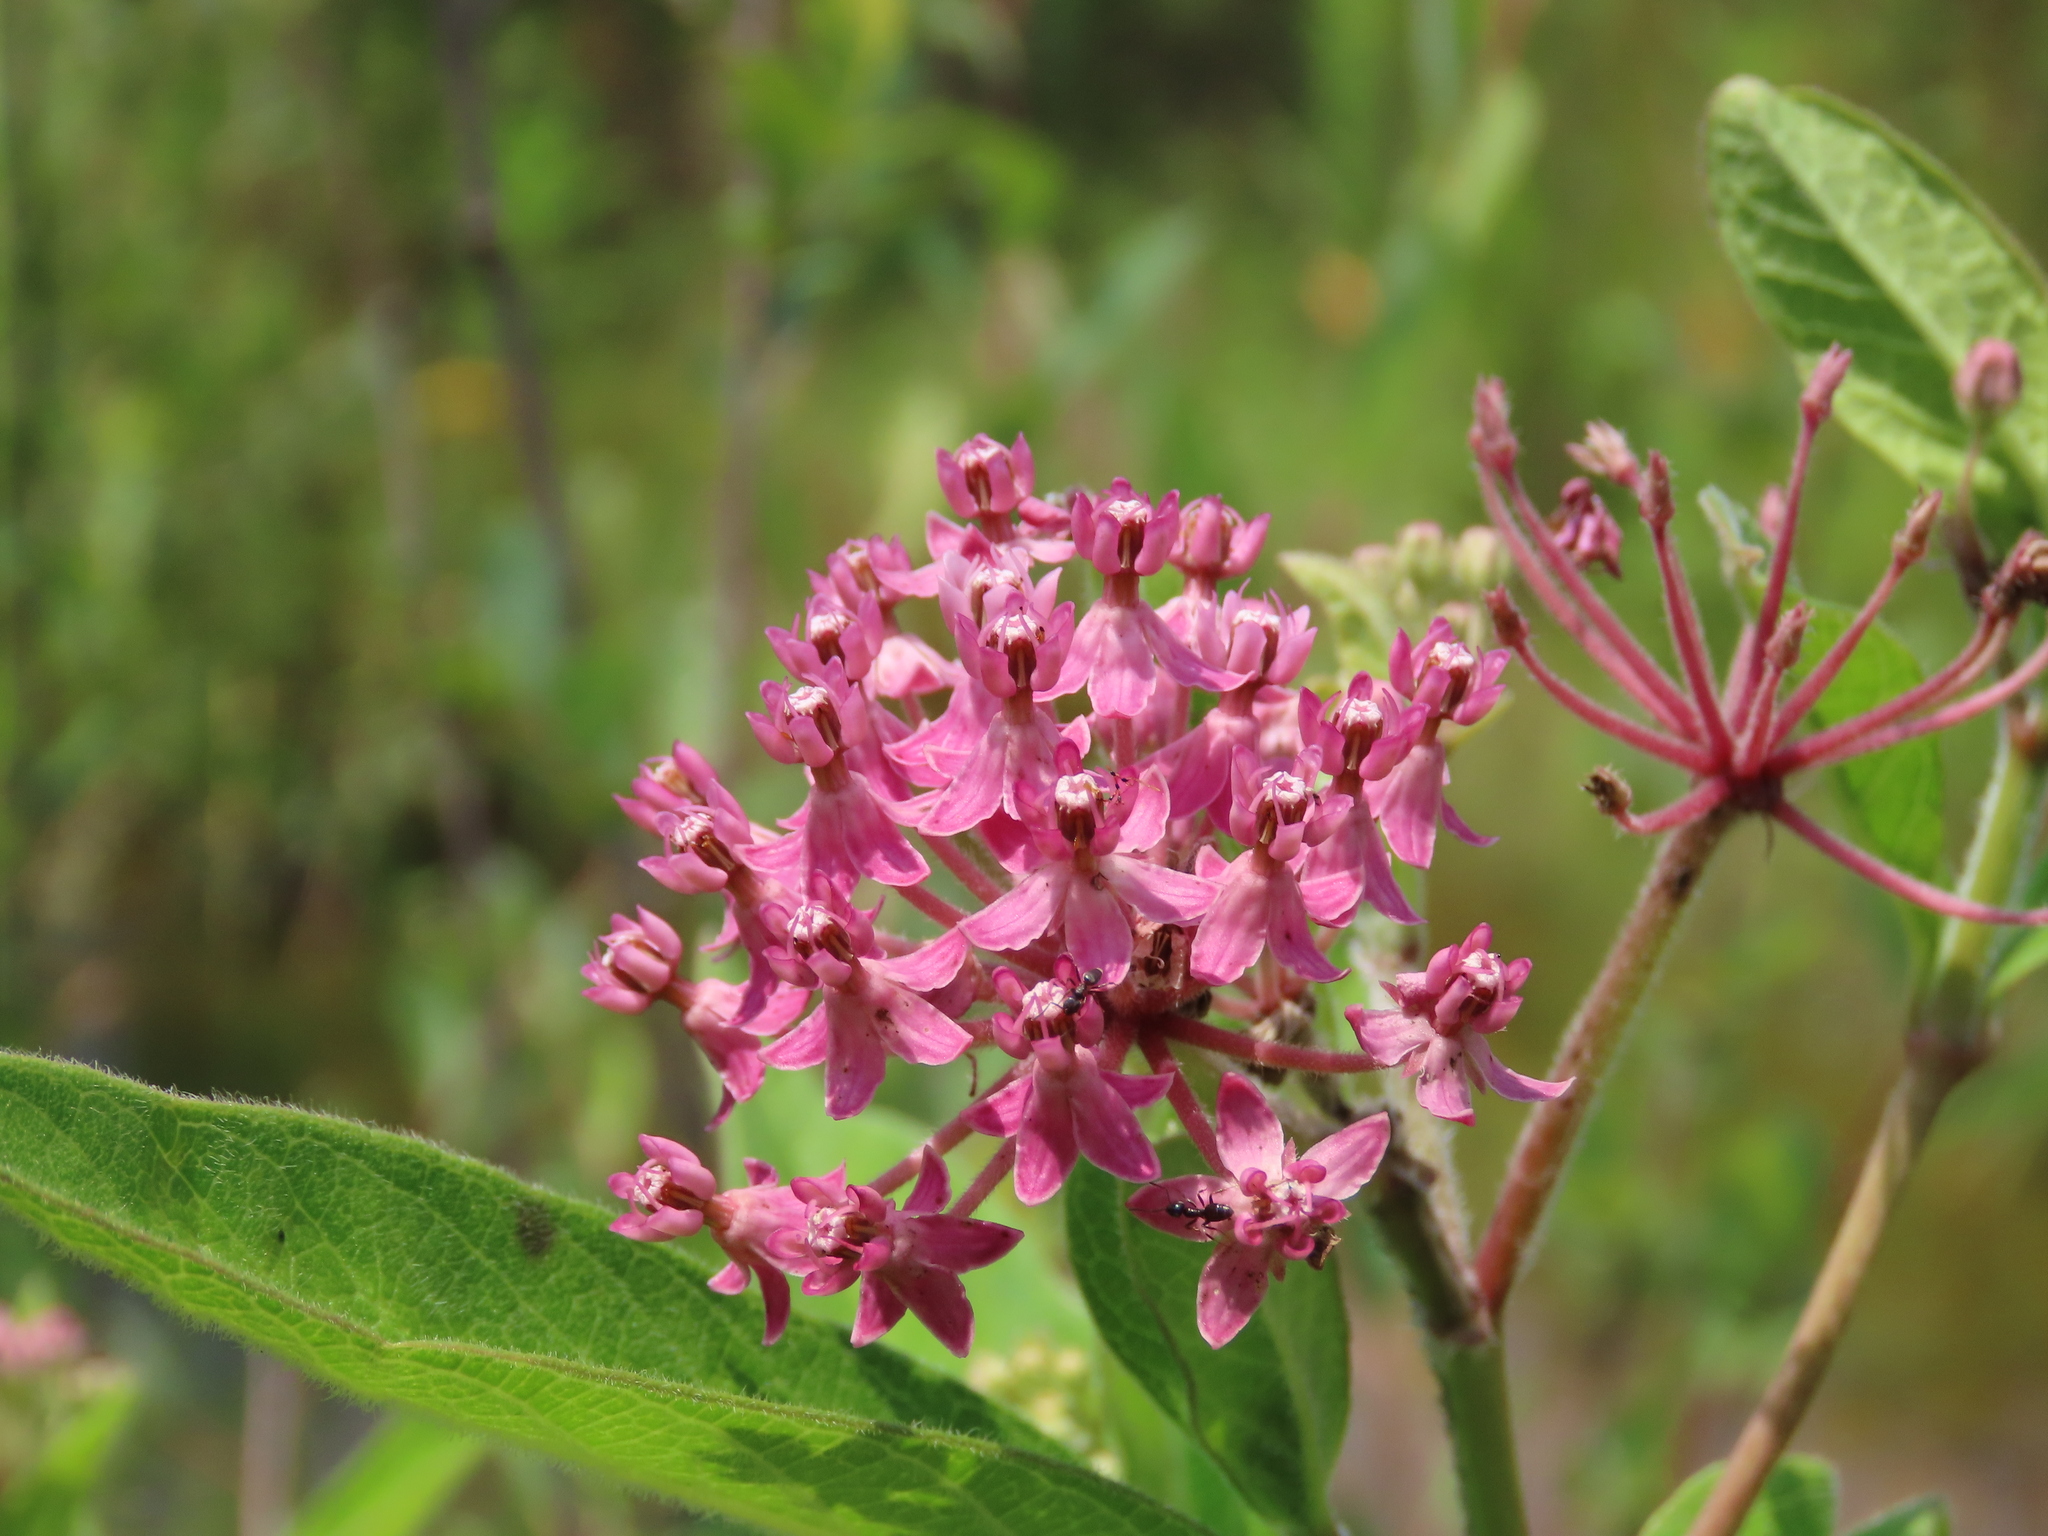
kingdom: Plantae
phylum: Tracheophyta
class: Magnoliopsida
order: Gentianales
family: Apocynaceae
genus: Asclepias
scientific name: Asclepias incarnata
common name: Swamp milkweed
